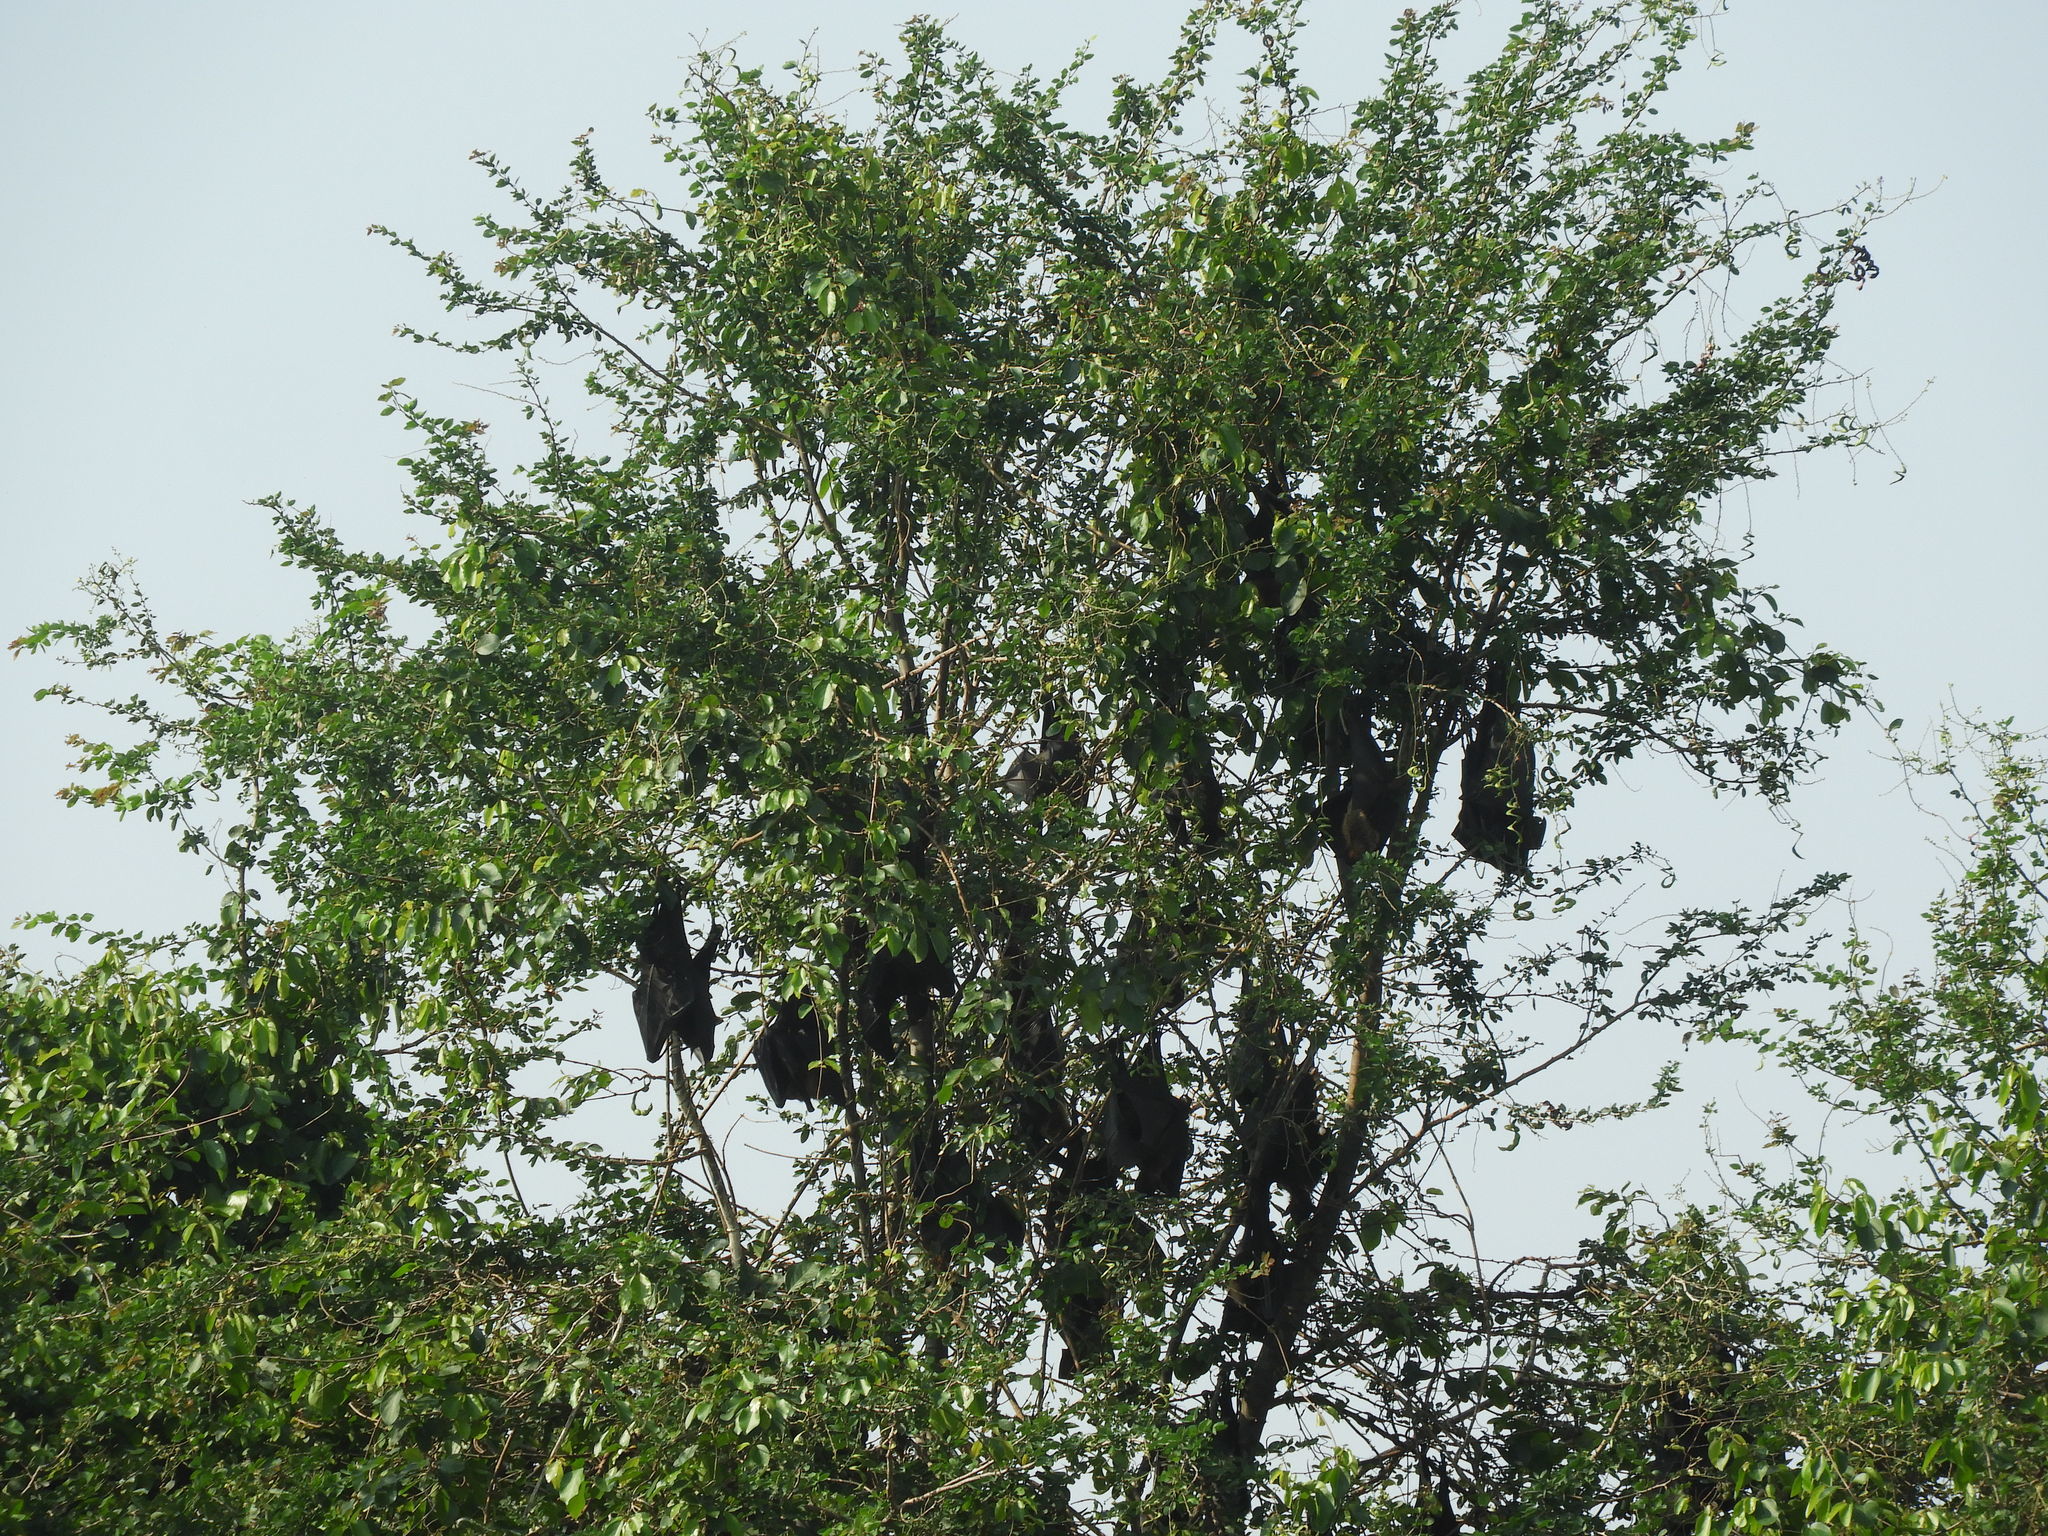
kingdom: Animalia
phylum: Chordata
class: Mammalia
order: Chiroptera
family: Pteropodidae
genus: Pteropus
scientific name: Pteropus vampyrus
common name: Large flying fox
